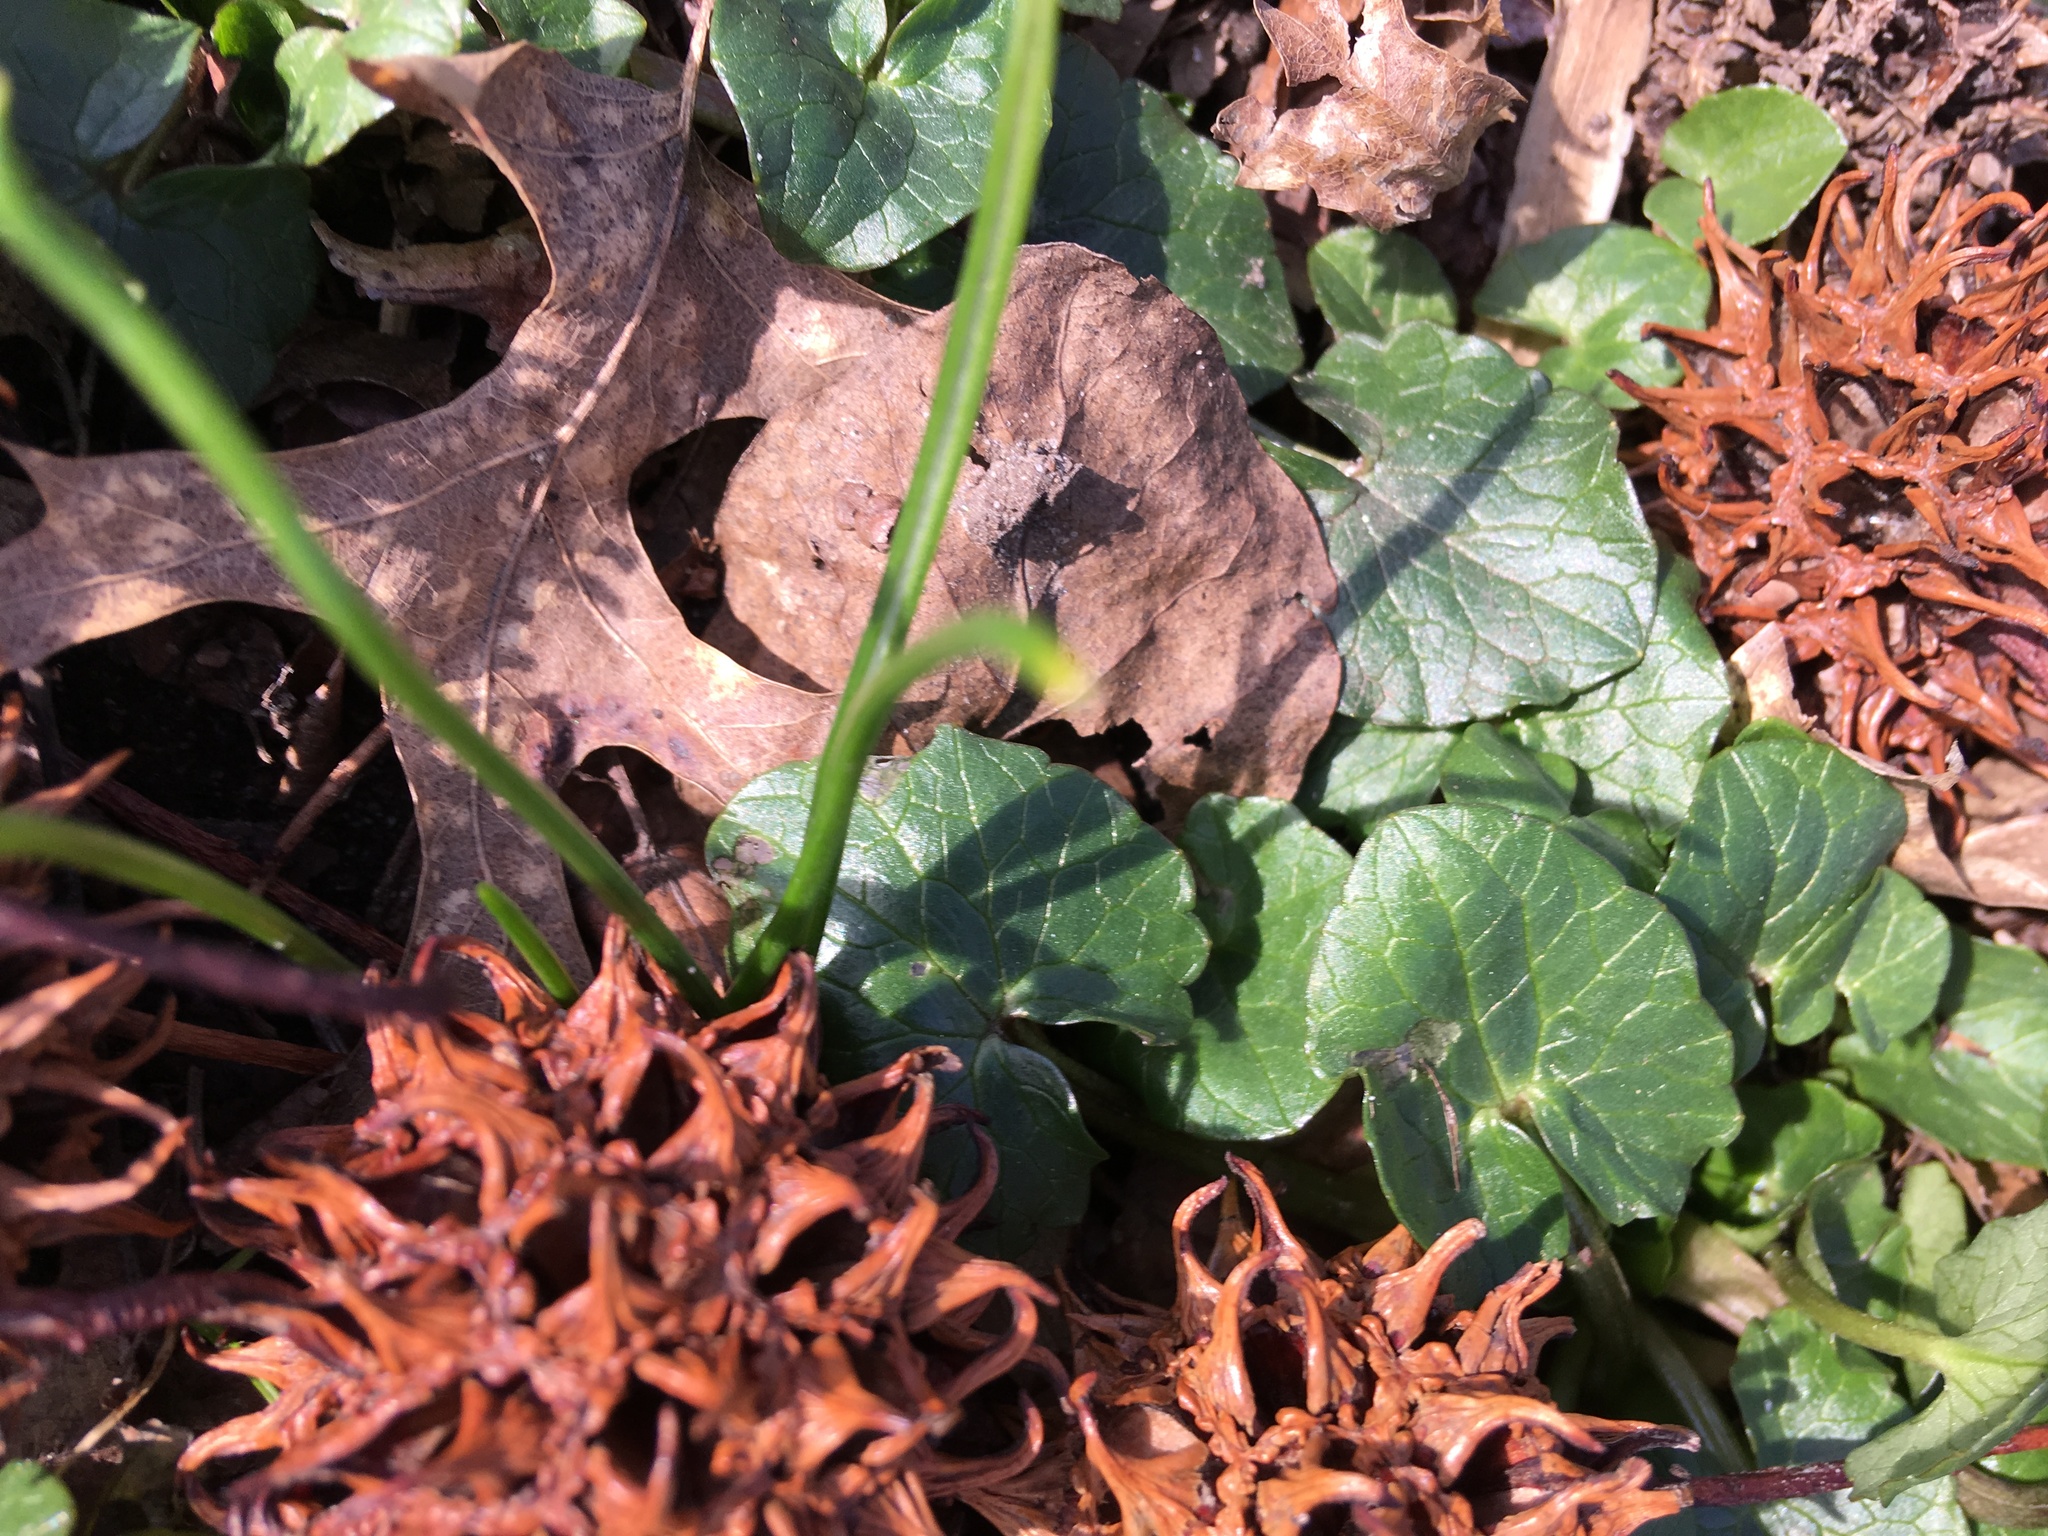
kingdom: Plantae
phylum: Tracheophyta
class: Magnoliopsida
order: Ranunculales
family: Ranunculaceae
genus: Ficaria
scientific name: Ficaria verna
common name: Lesser celandine
